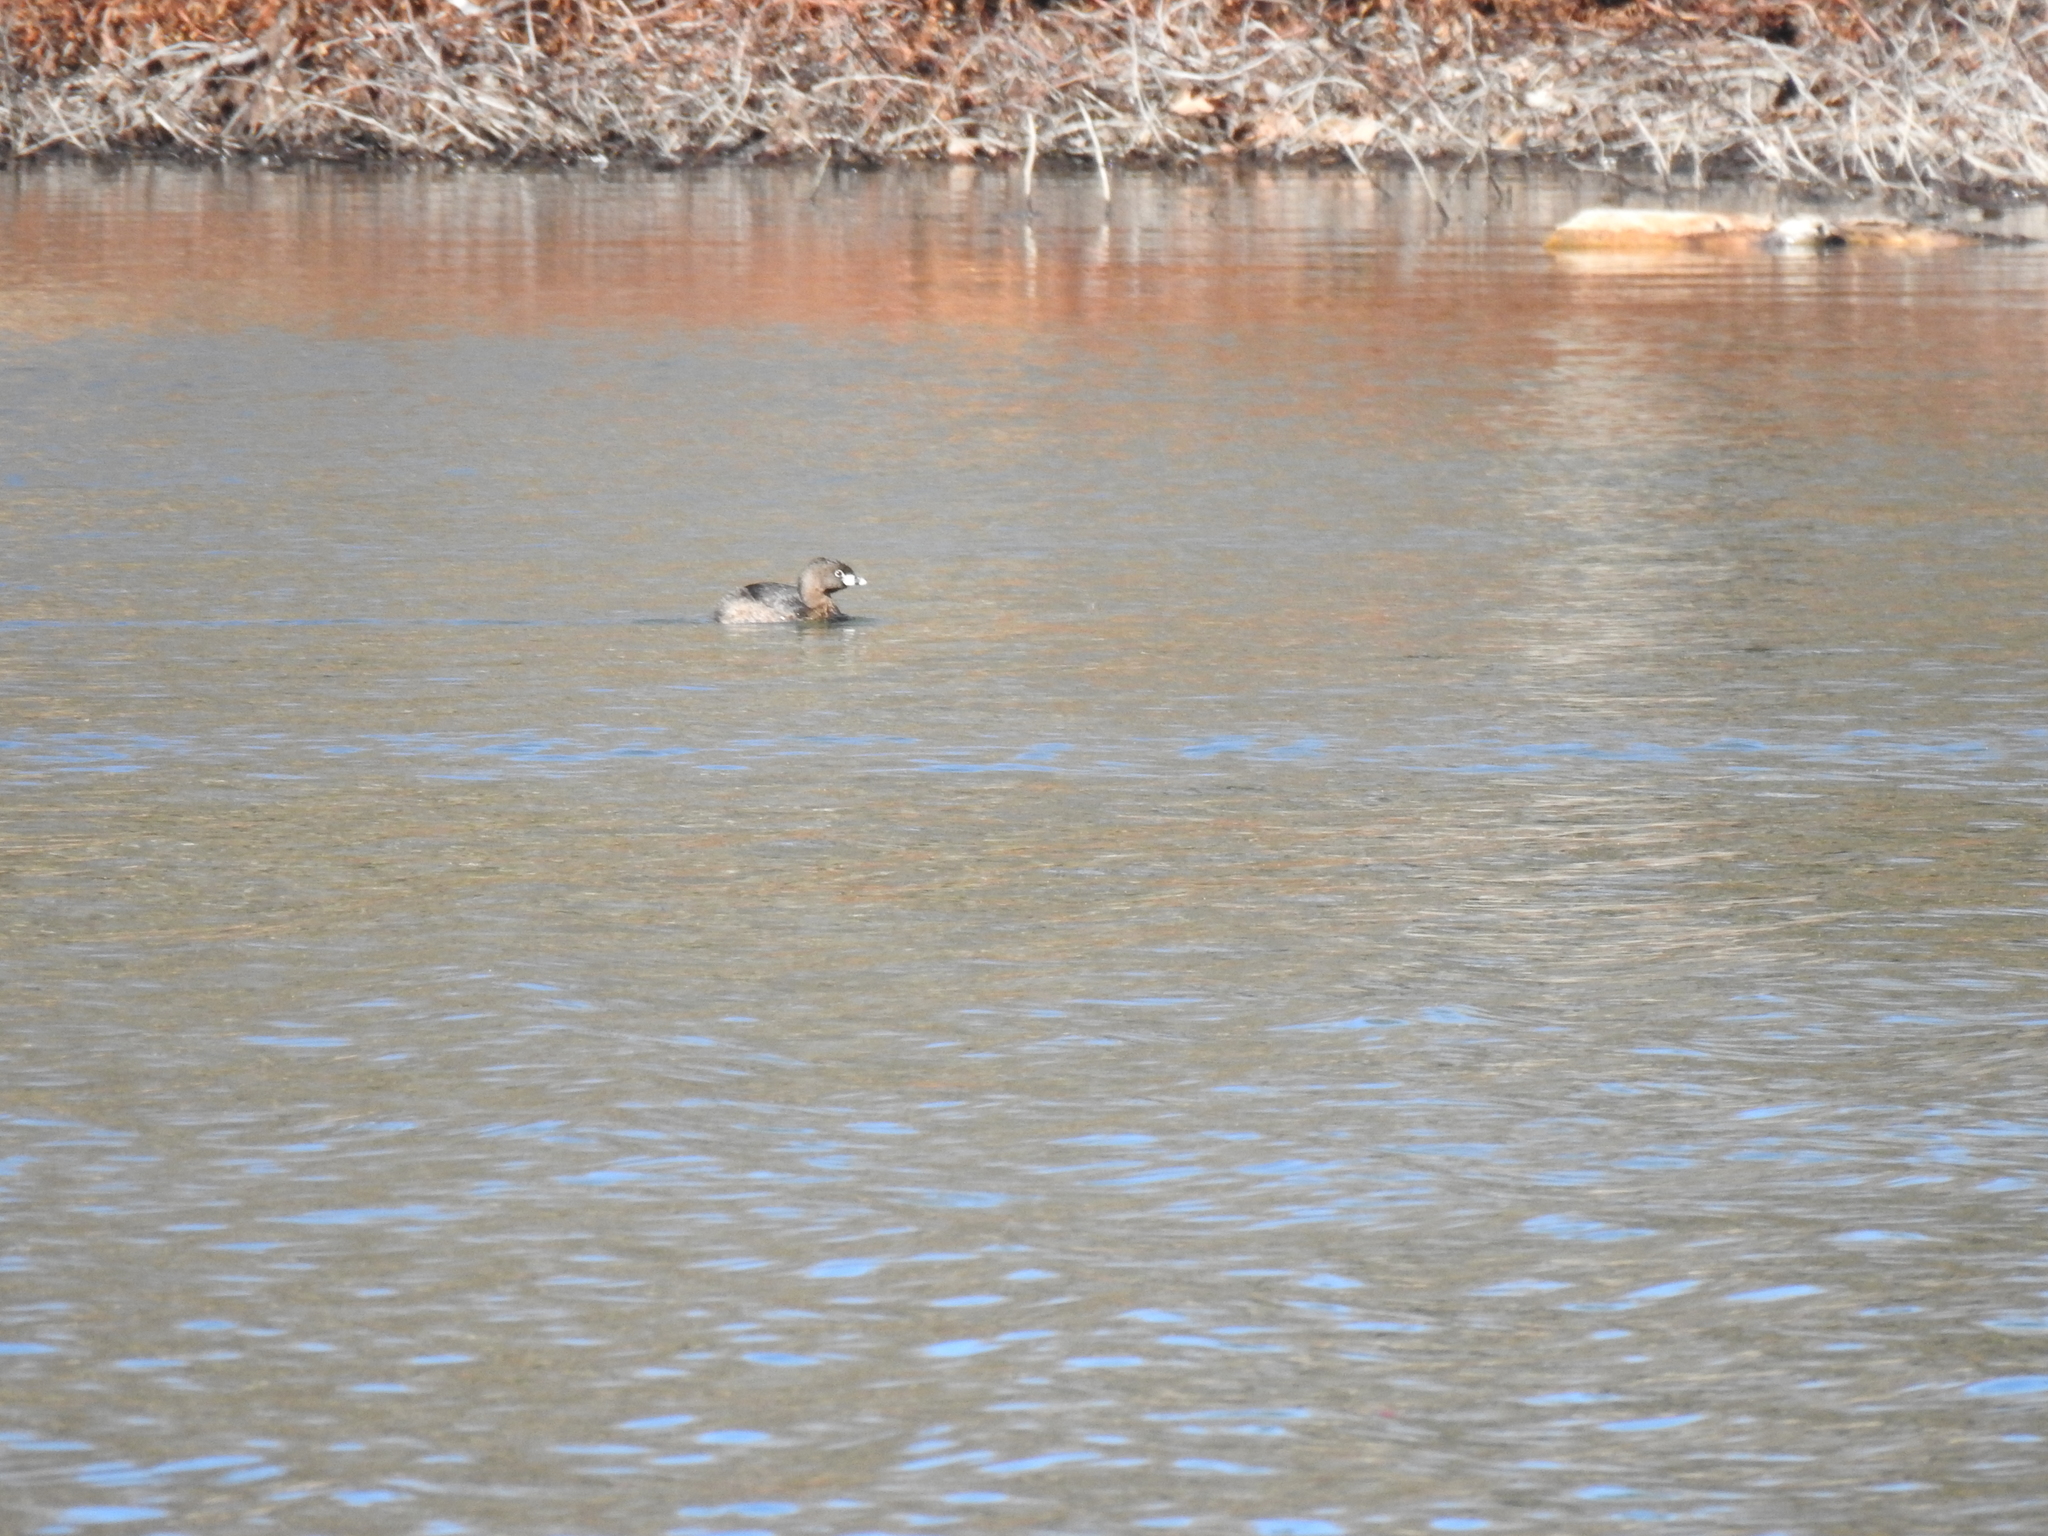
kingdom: Animalia
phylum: Chordata
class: Aves
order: Podicipediformes
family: Podicipedidae
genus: Podilymbus
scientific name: Podilymbus podiceps
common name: Pied-billed grebe
